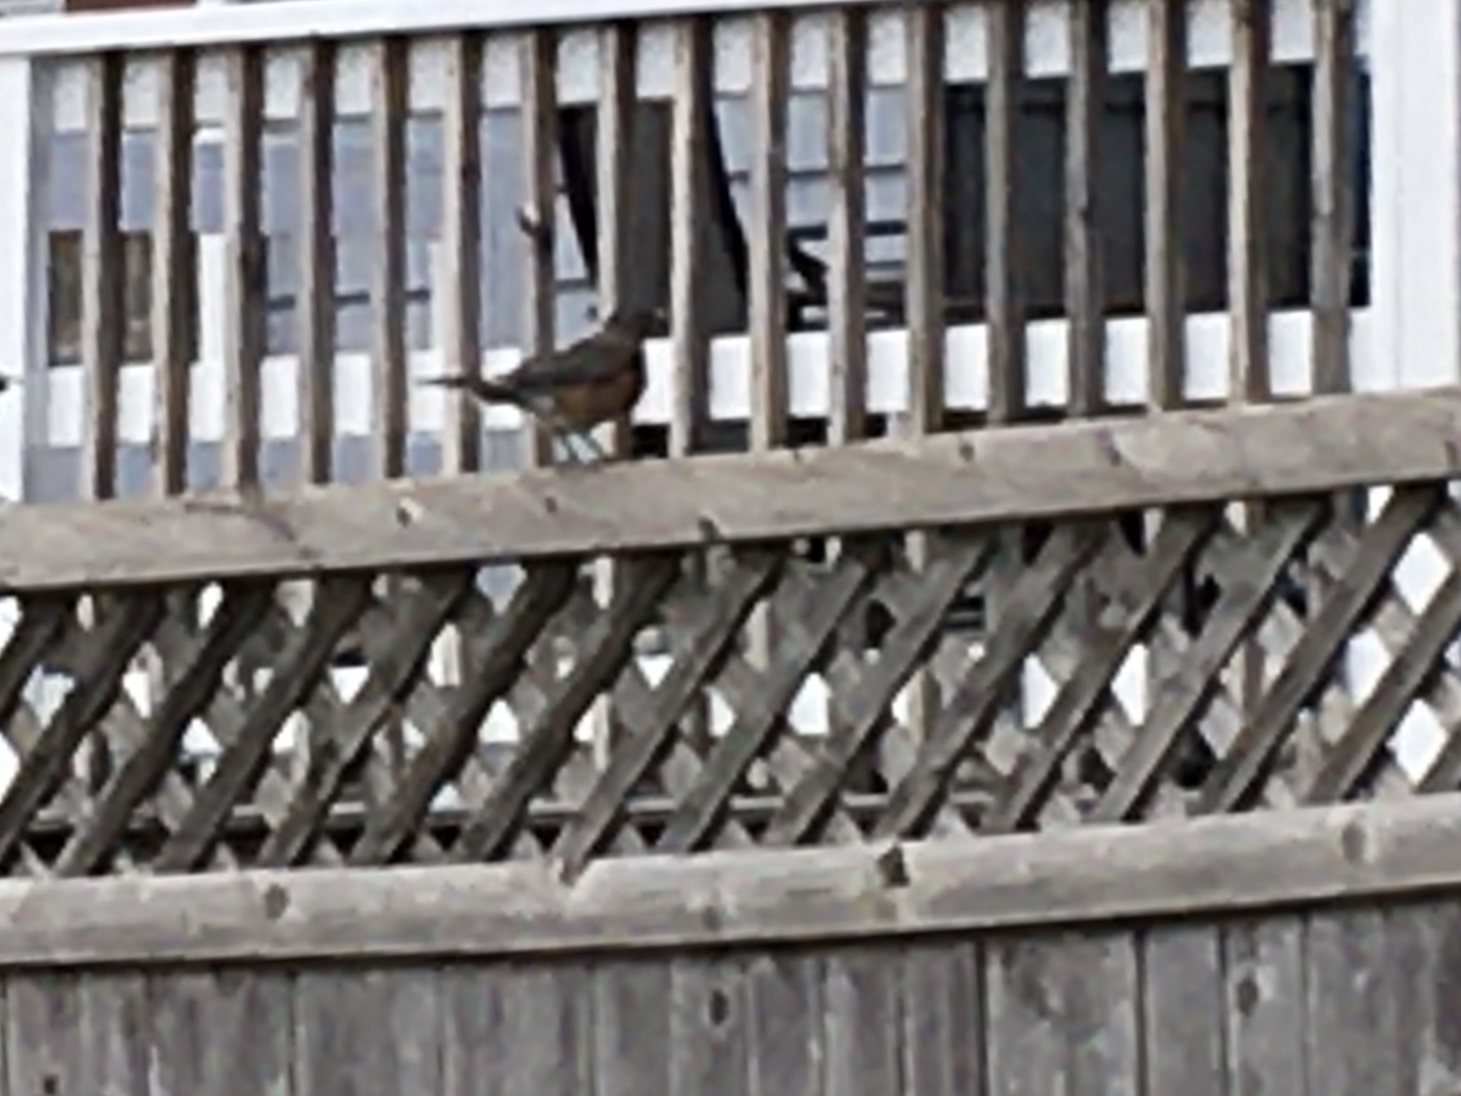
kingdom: Animalia
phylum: Chordata
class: Aves
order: Passeriformes
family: Turdidae
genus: Turdus
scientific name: Turdus migratorius
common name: American robin
